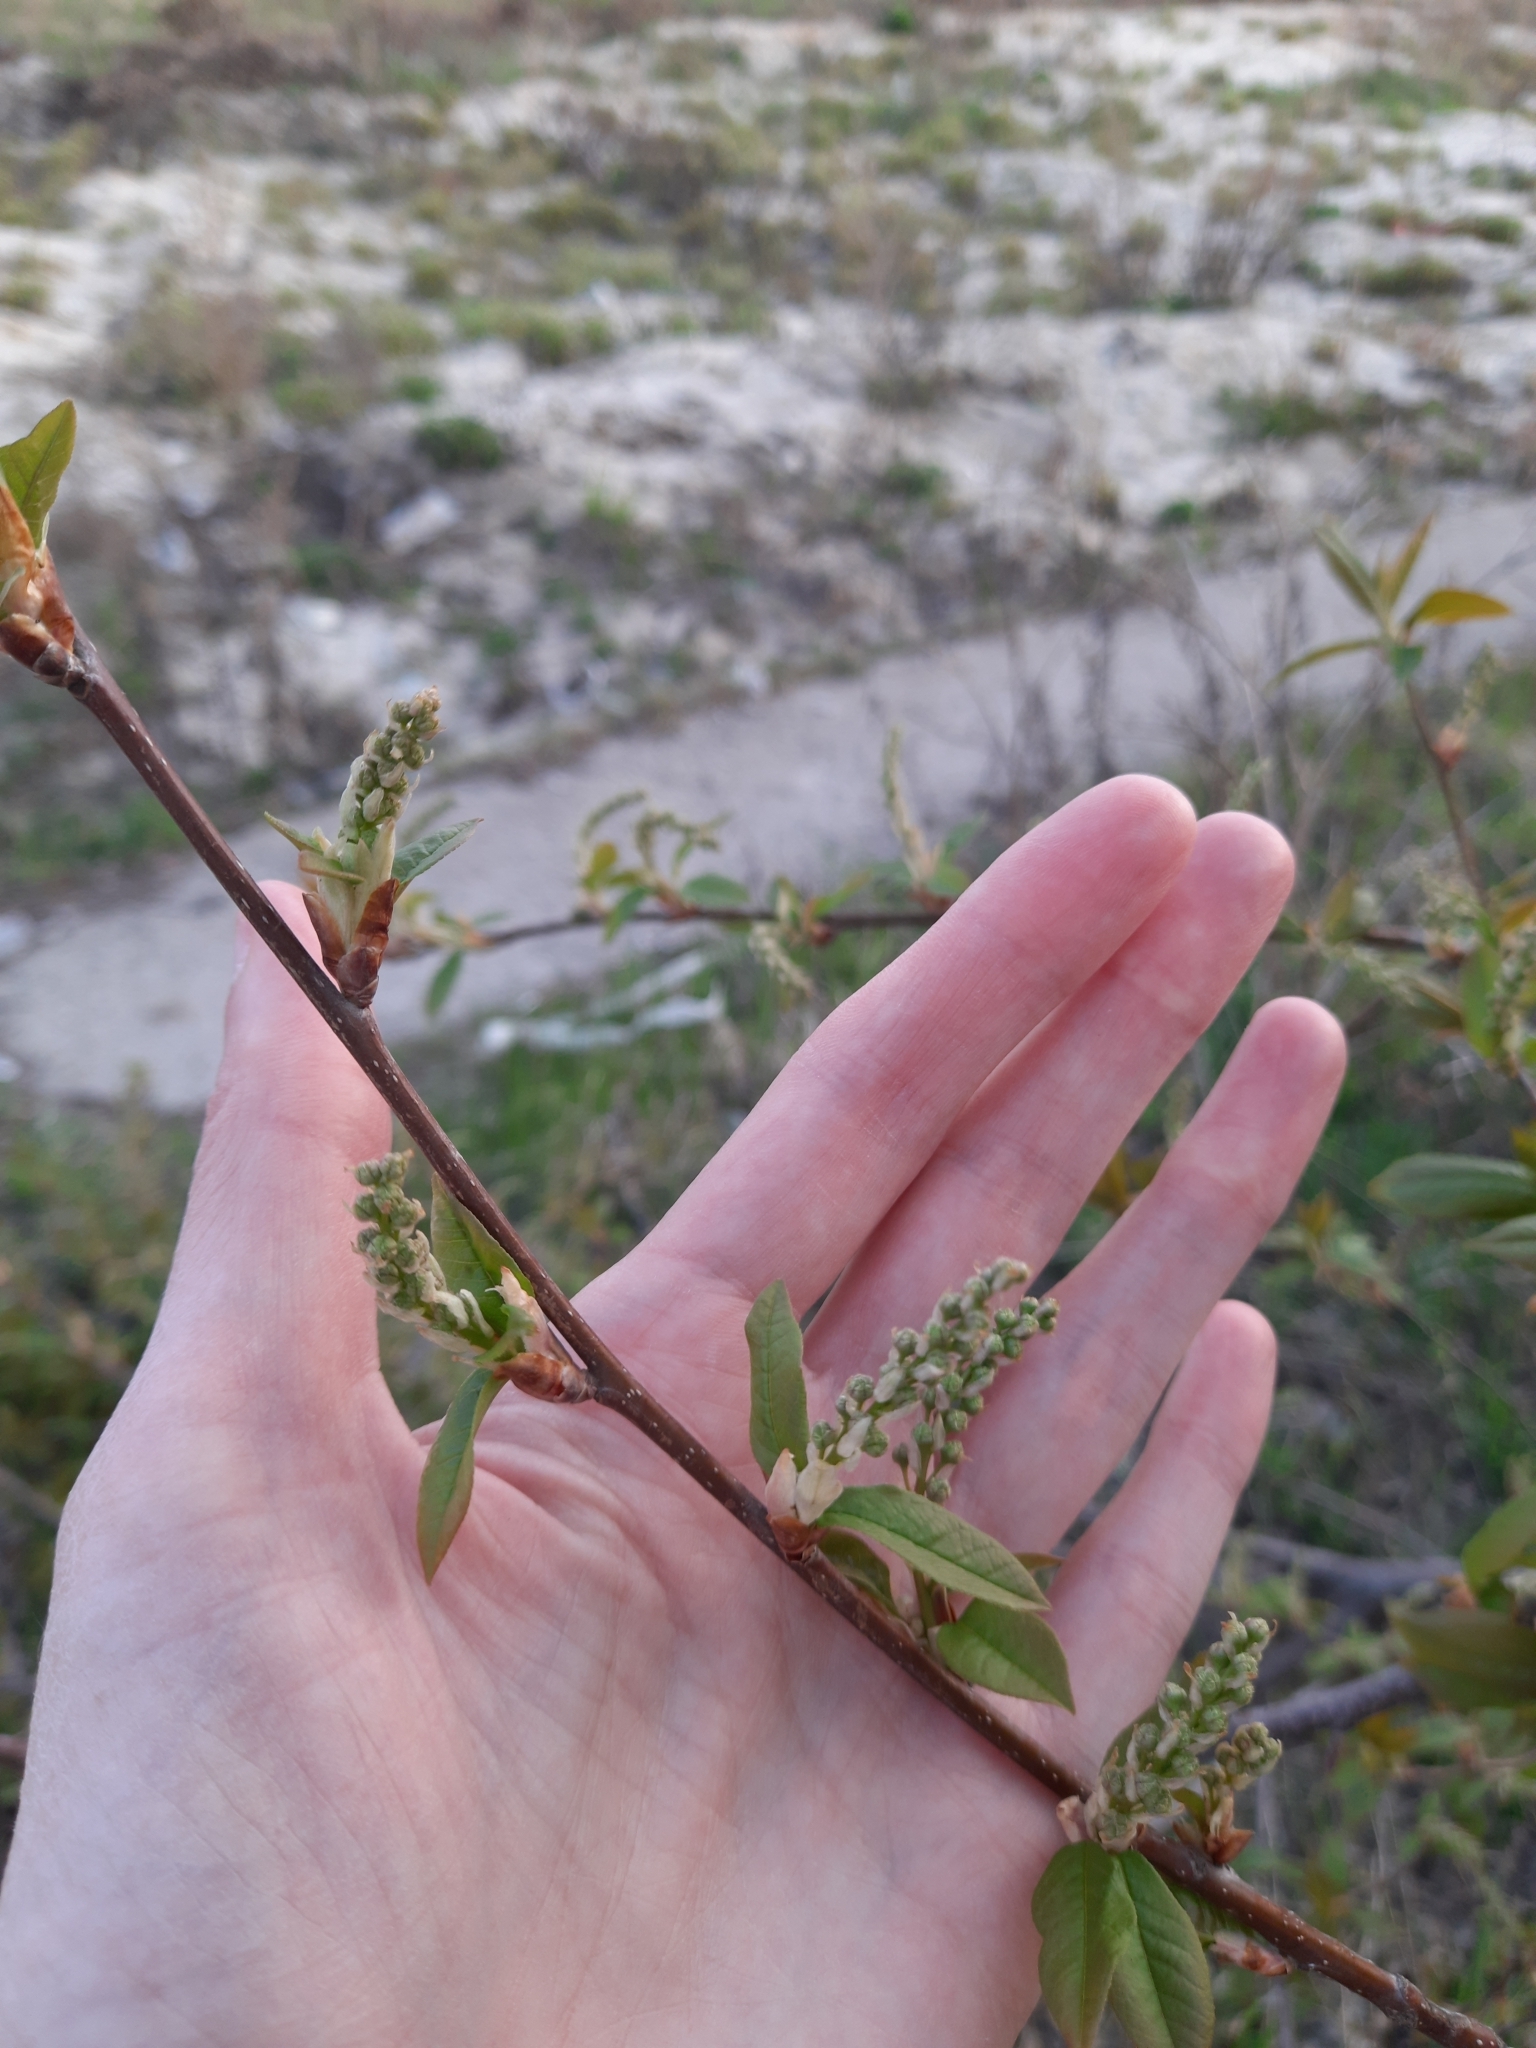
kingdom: Plantae
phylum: Tracheophyta
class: Magnoliopsida
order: Rosales
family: Rosaceae
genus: Prunus
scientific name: Prunus padus
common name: Bird cherry
